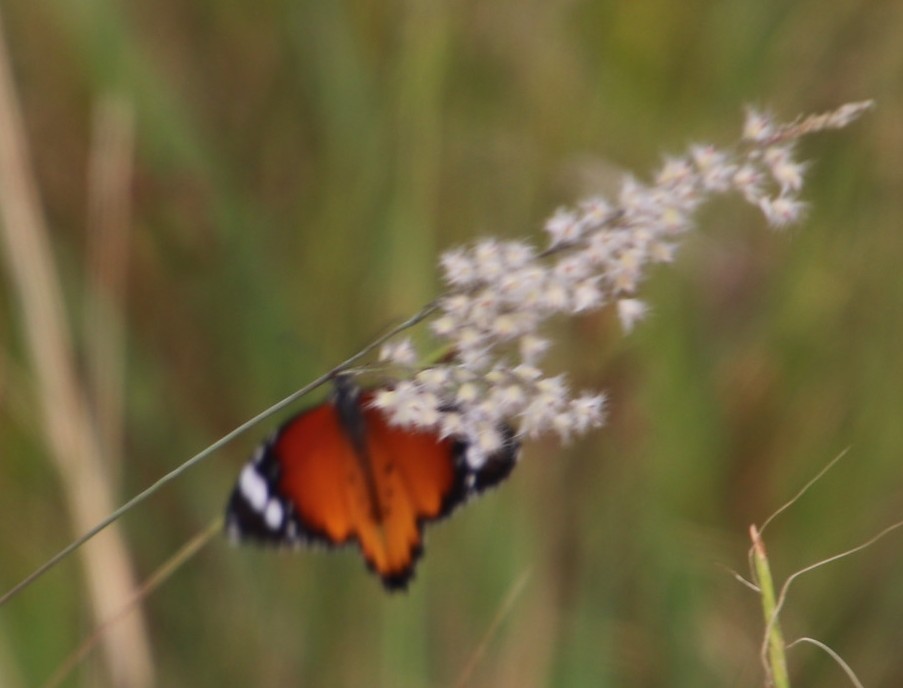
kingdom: Animalia
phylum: Arthropoda
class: Insecta
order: Lepidoptera
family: Nymphalidae
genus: Danaus
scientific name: Danaus chrysippus
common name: Plain tiger
